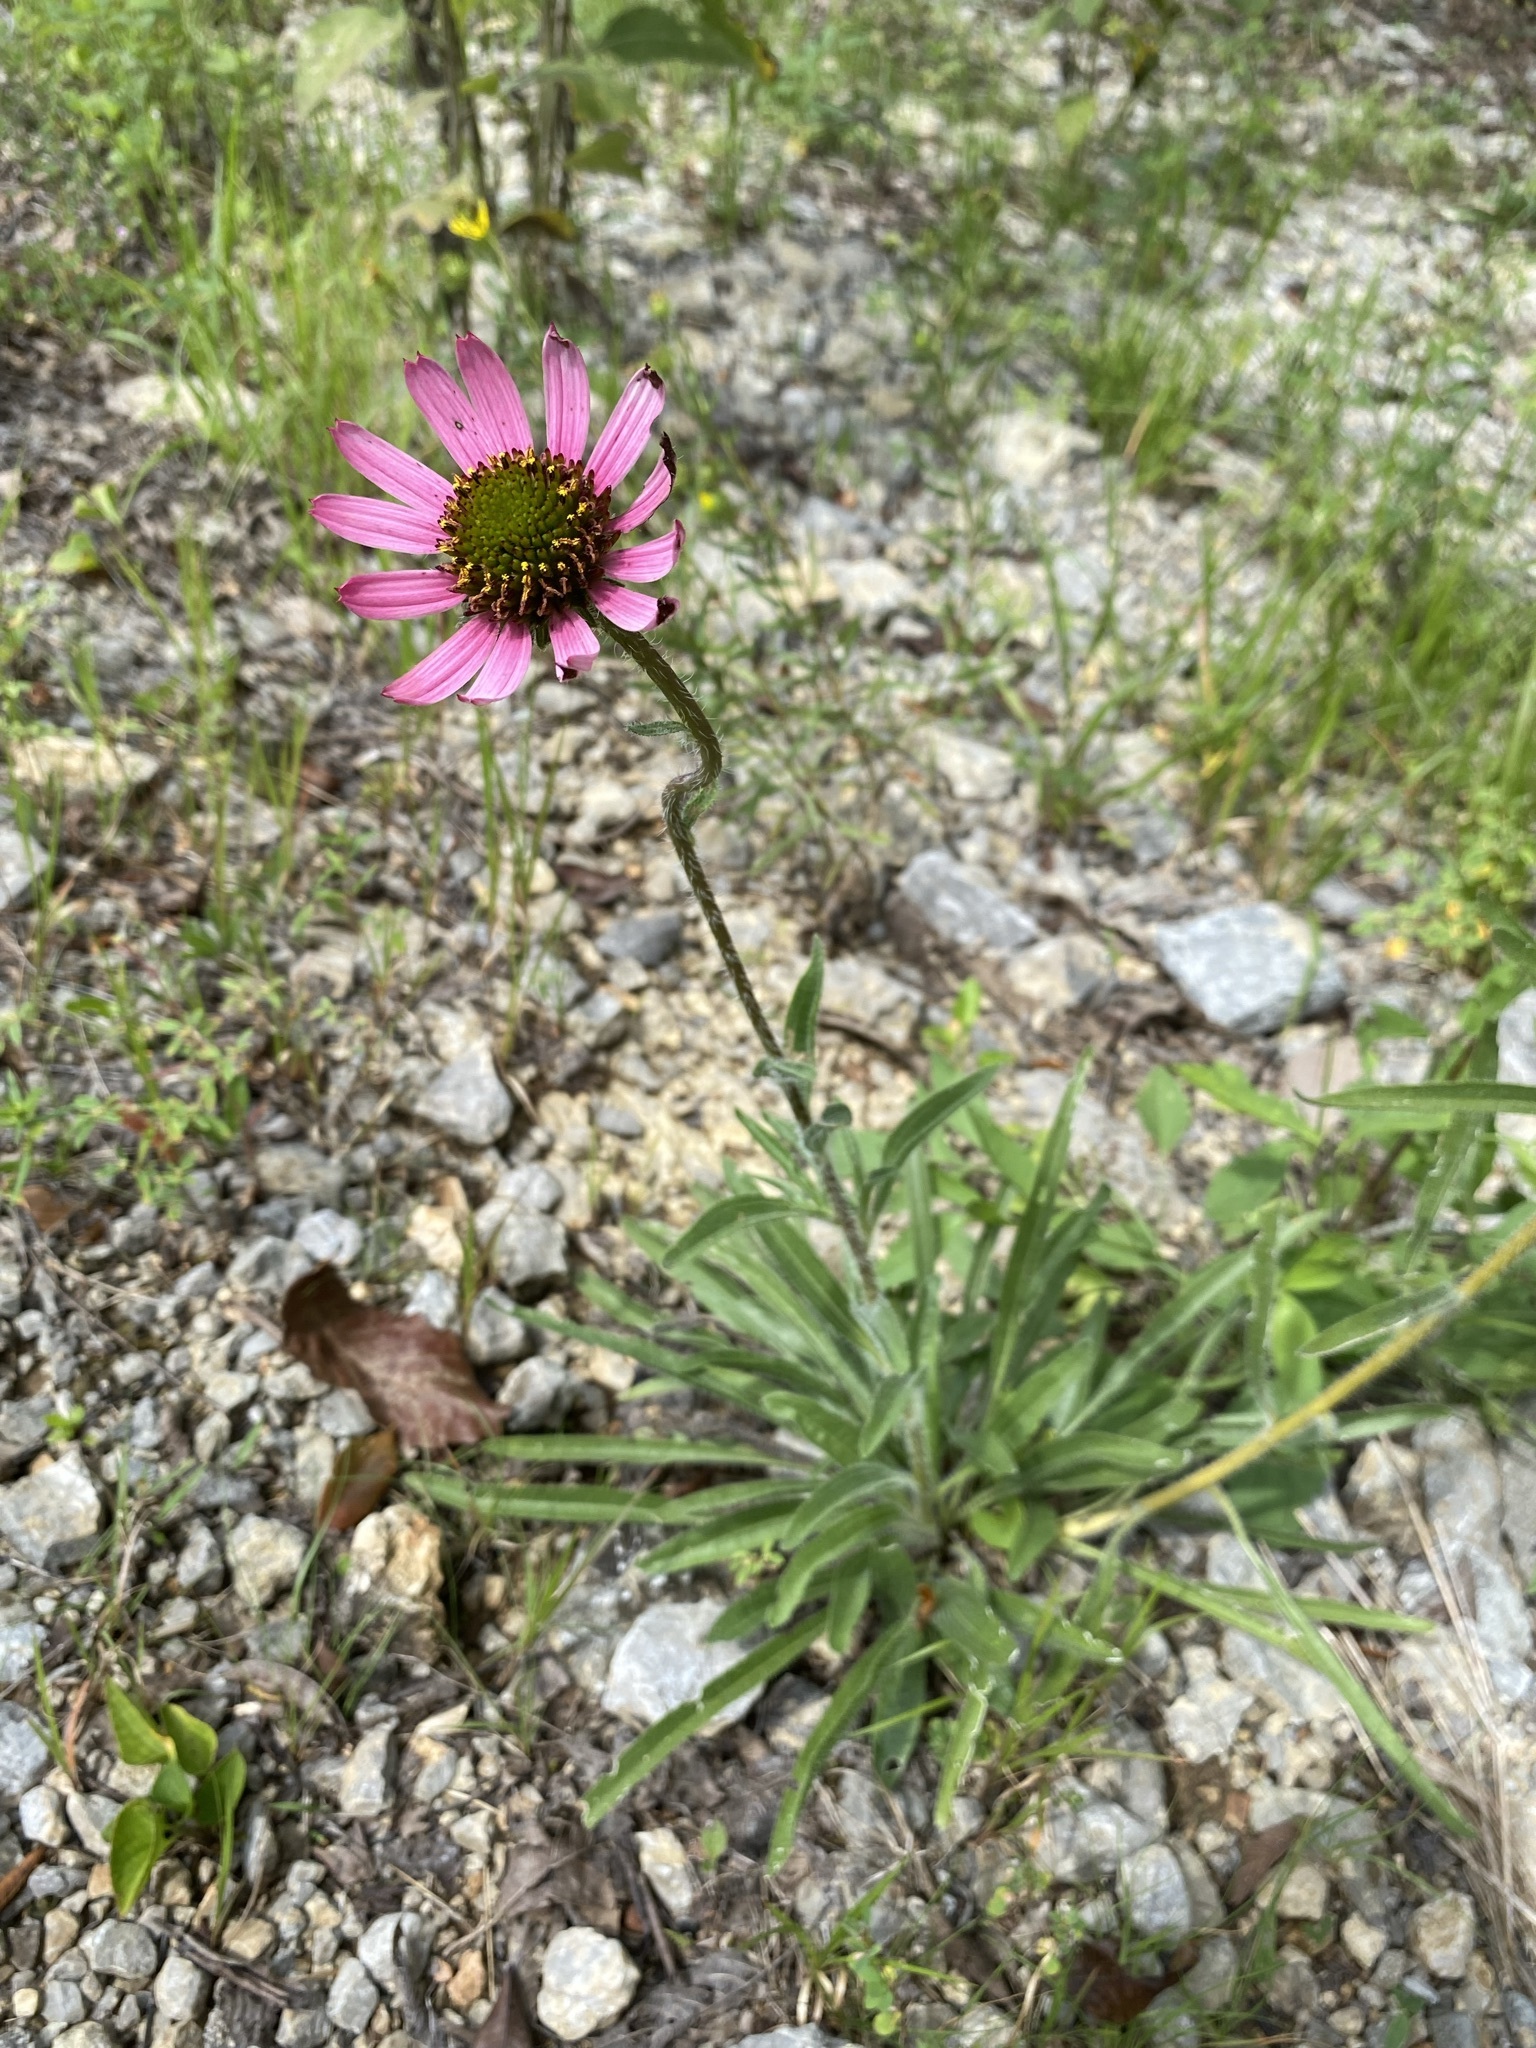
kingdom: Plantae
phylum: Tracheophyta
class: Magnoliopsida
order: Asterales
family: Asteraceae
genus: Echinacea
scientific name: Echinacea tennesseensis
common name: Tennessee purple-coneflower
